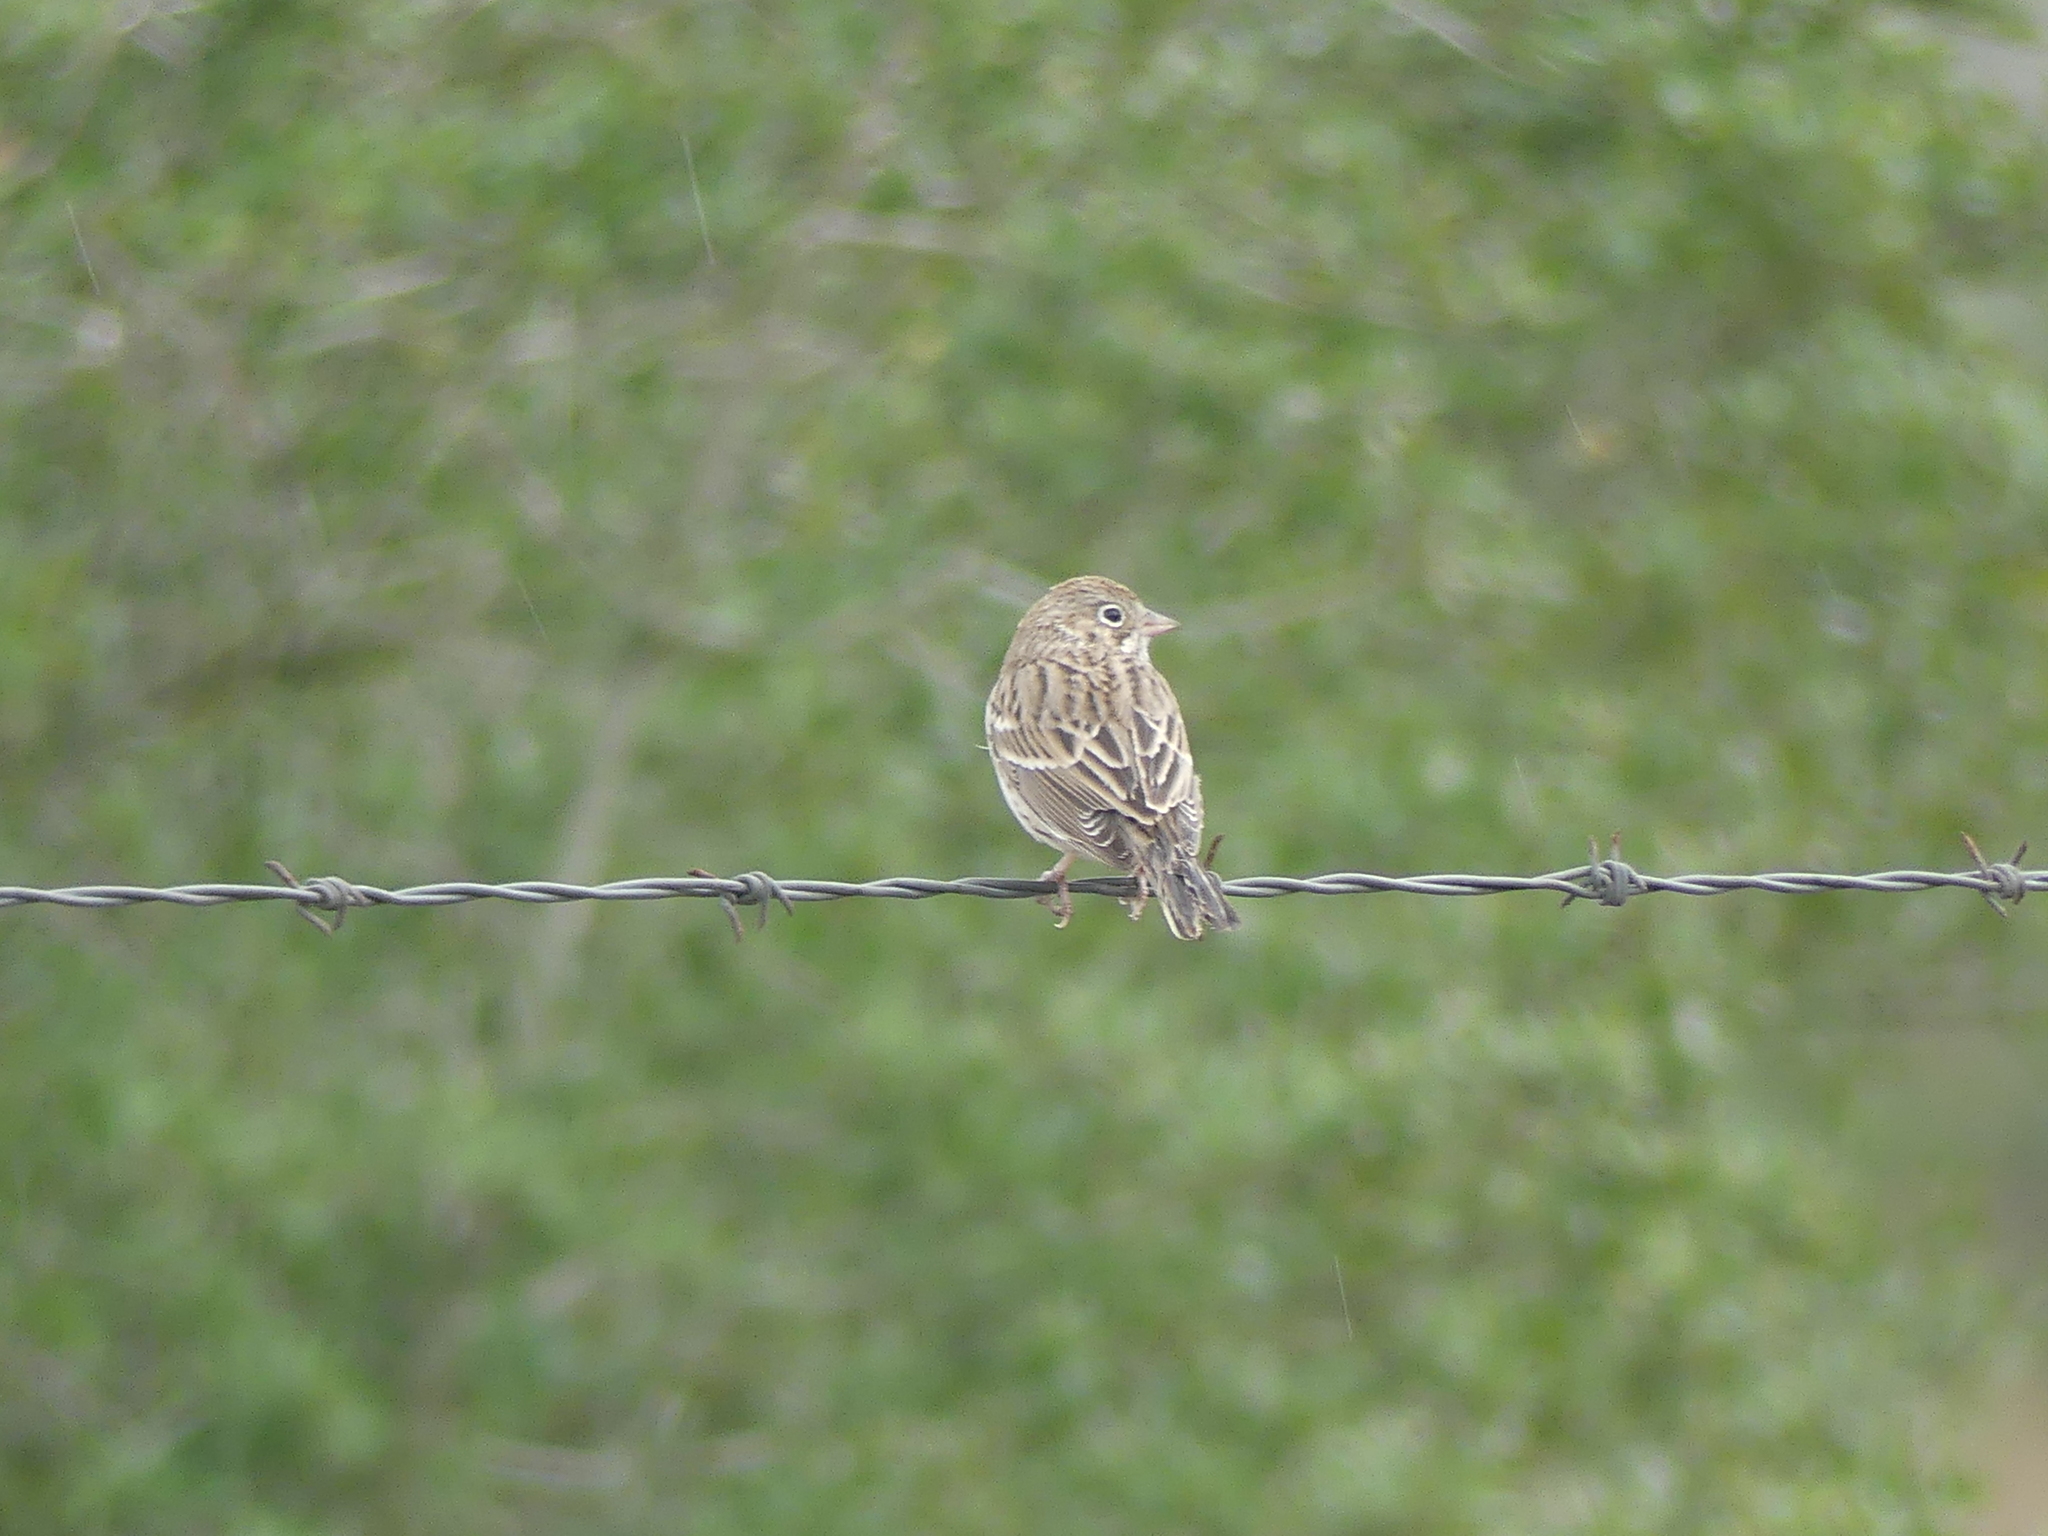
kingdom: Animalia
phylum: Chordata
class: Aves
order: Passeriformes
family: Passerellidae
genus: Pooecetes
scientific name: Pooecetes gramineus
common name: Vesper sparrow
